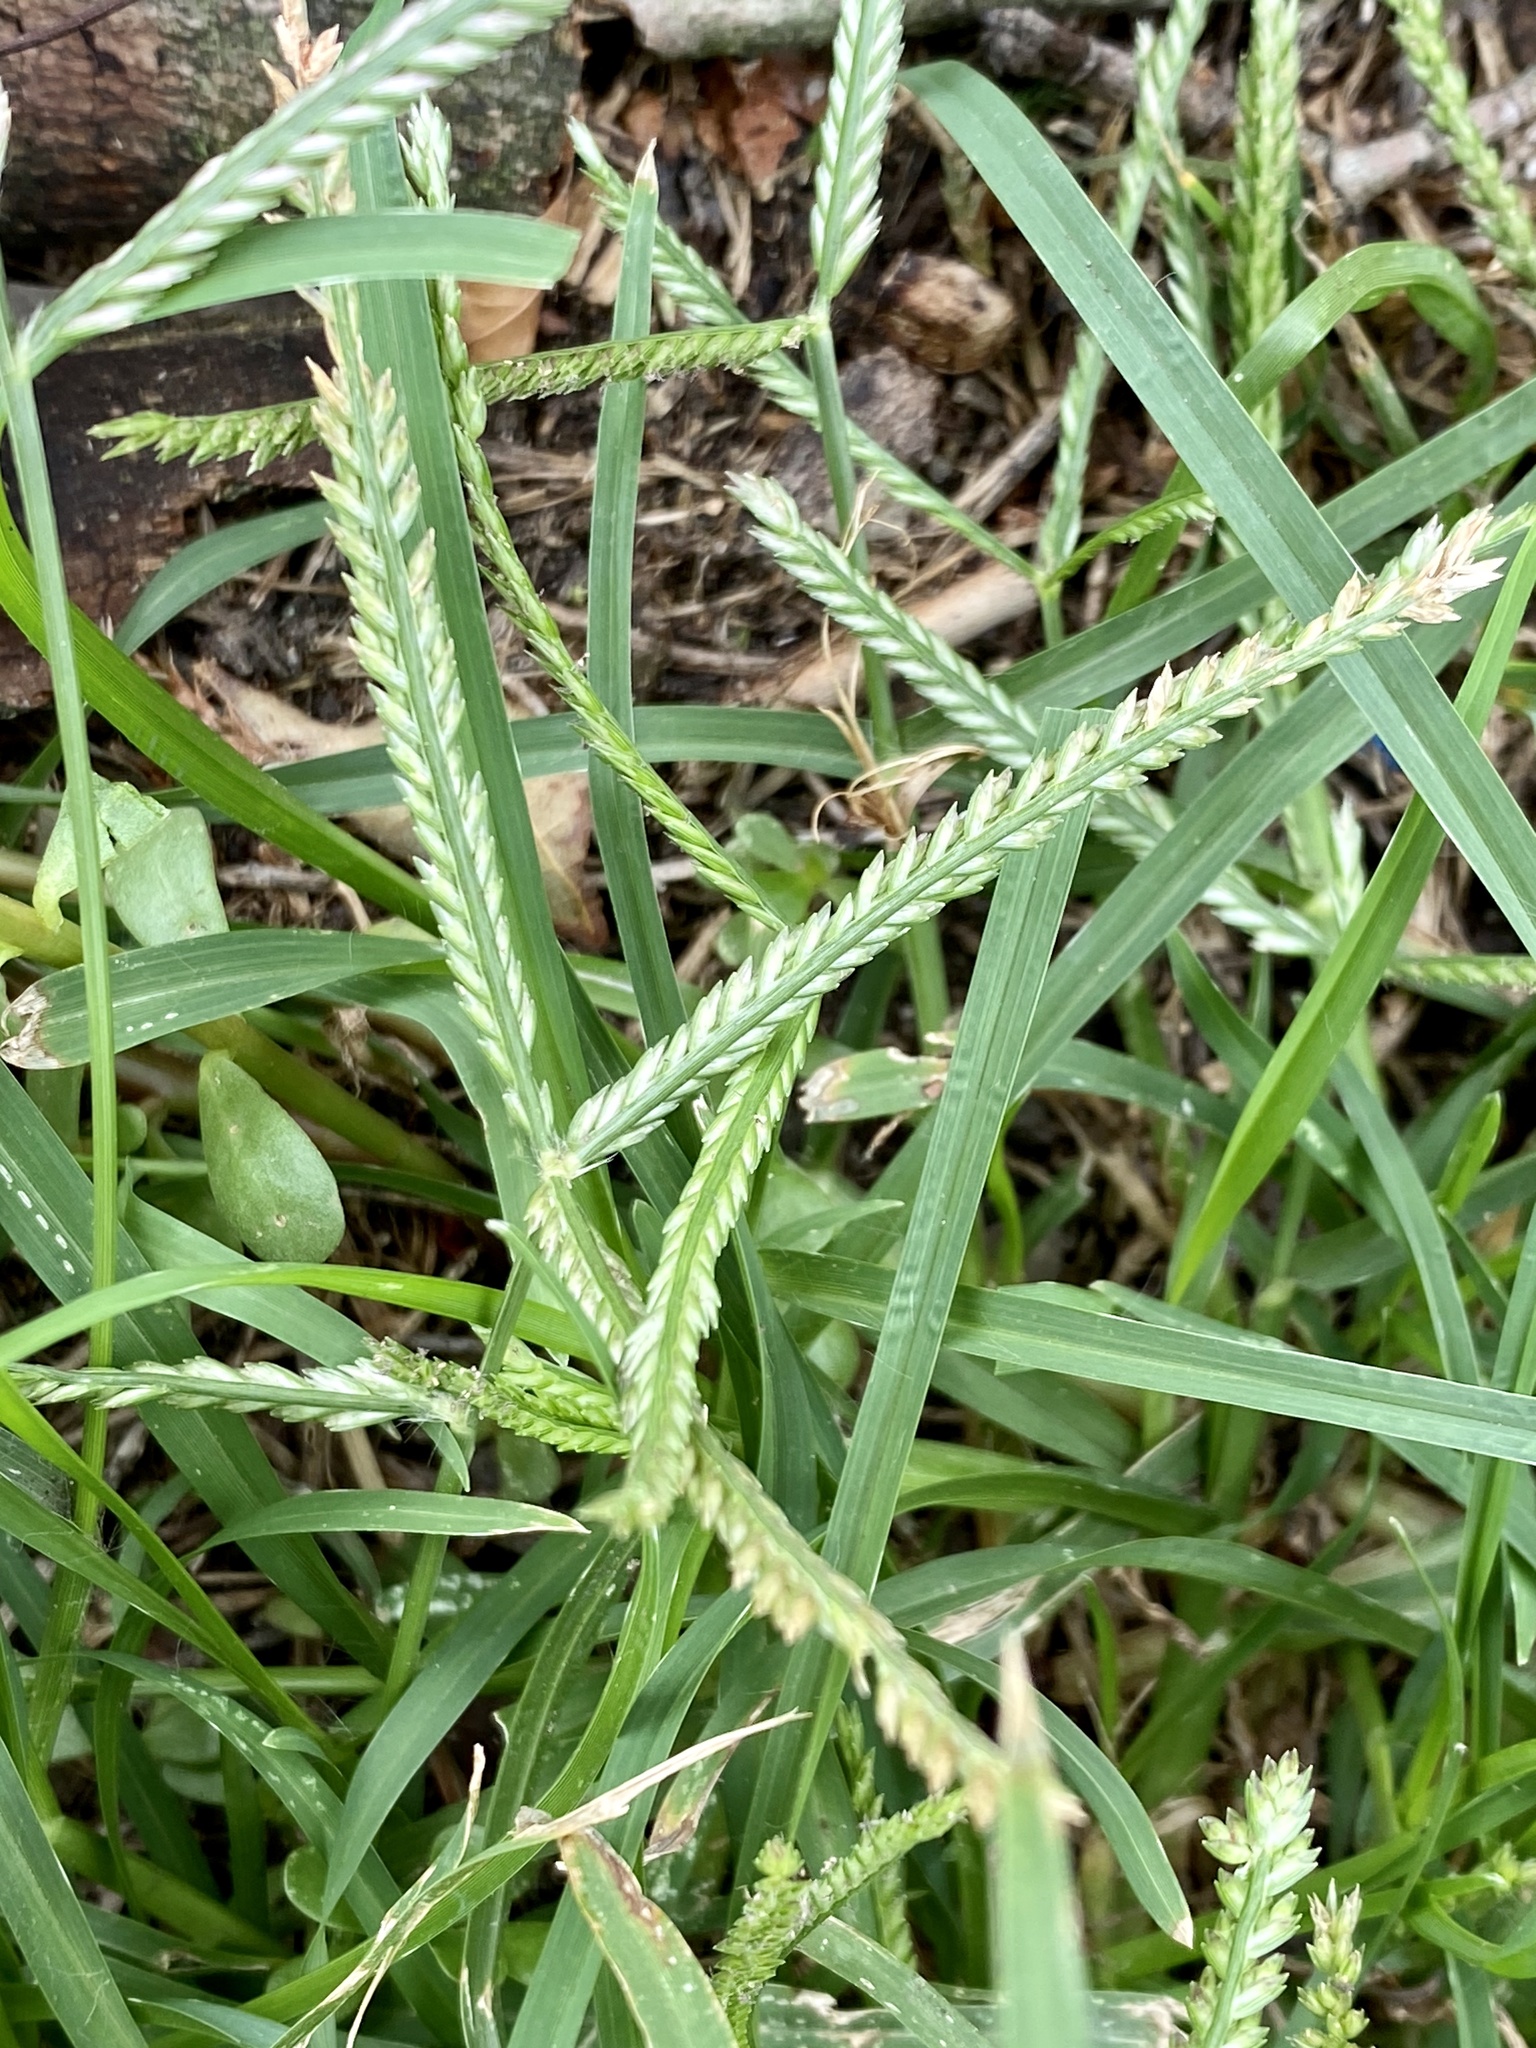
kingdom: Plantae
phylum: Tracheophyta
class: Liliopsida
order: Poales
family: Poaceae
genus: Eleusine
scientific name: Eleusine indica
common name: Yard-grass
